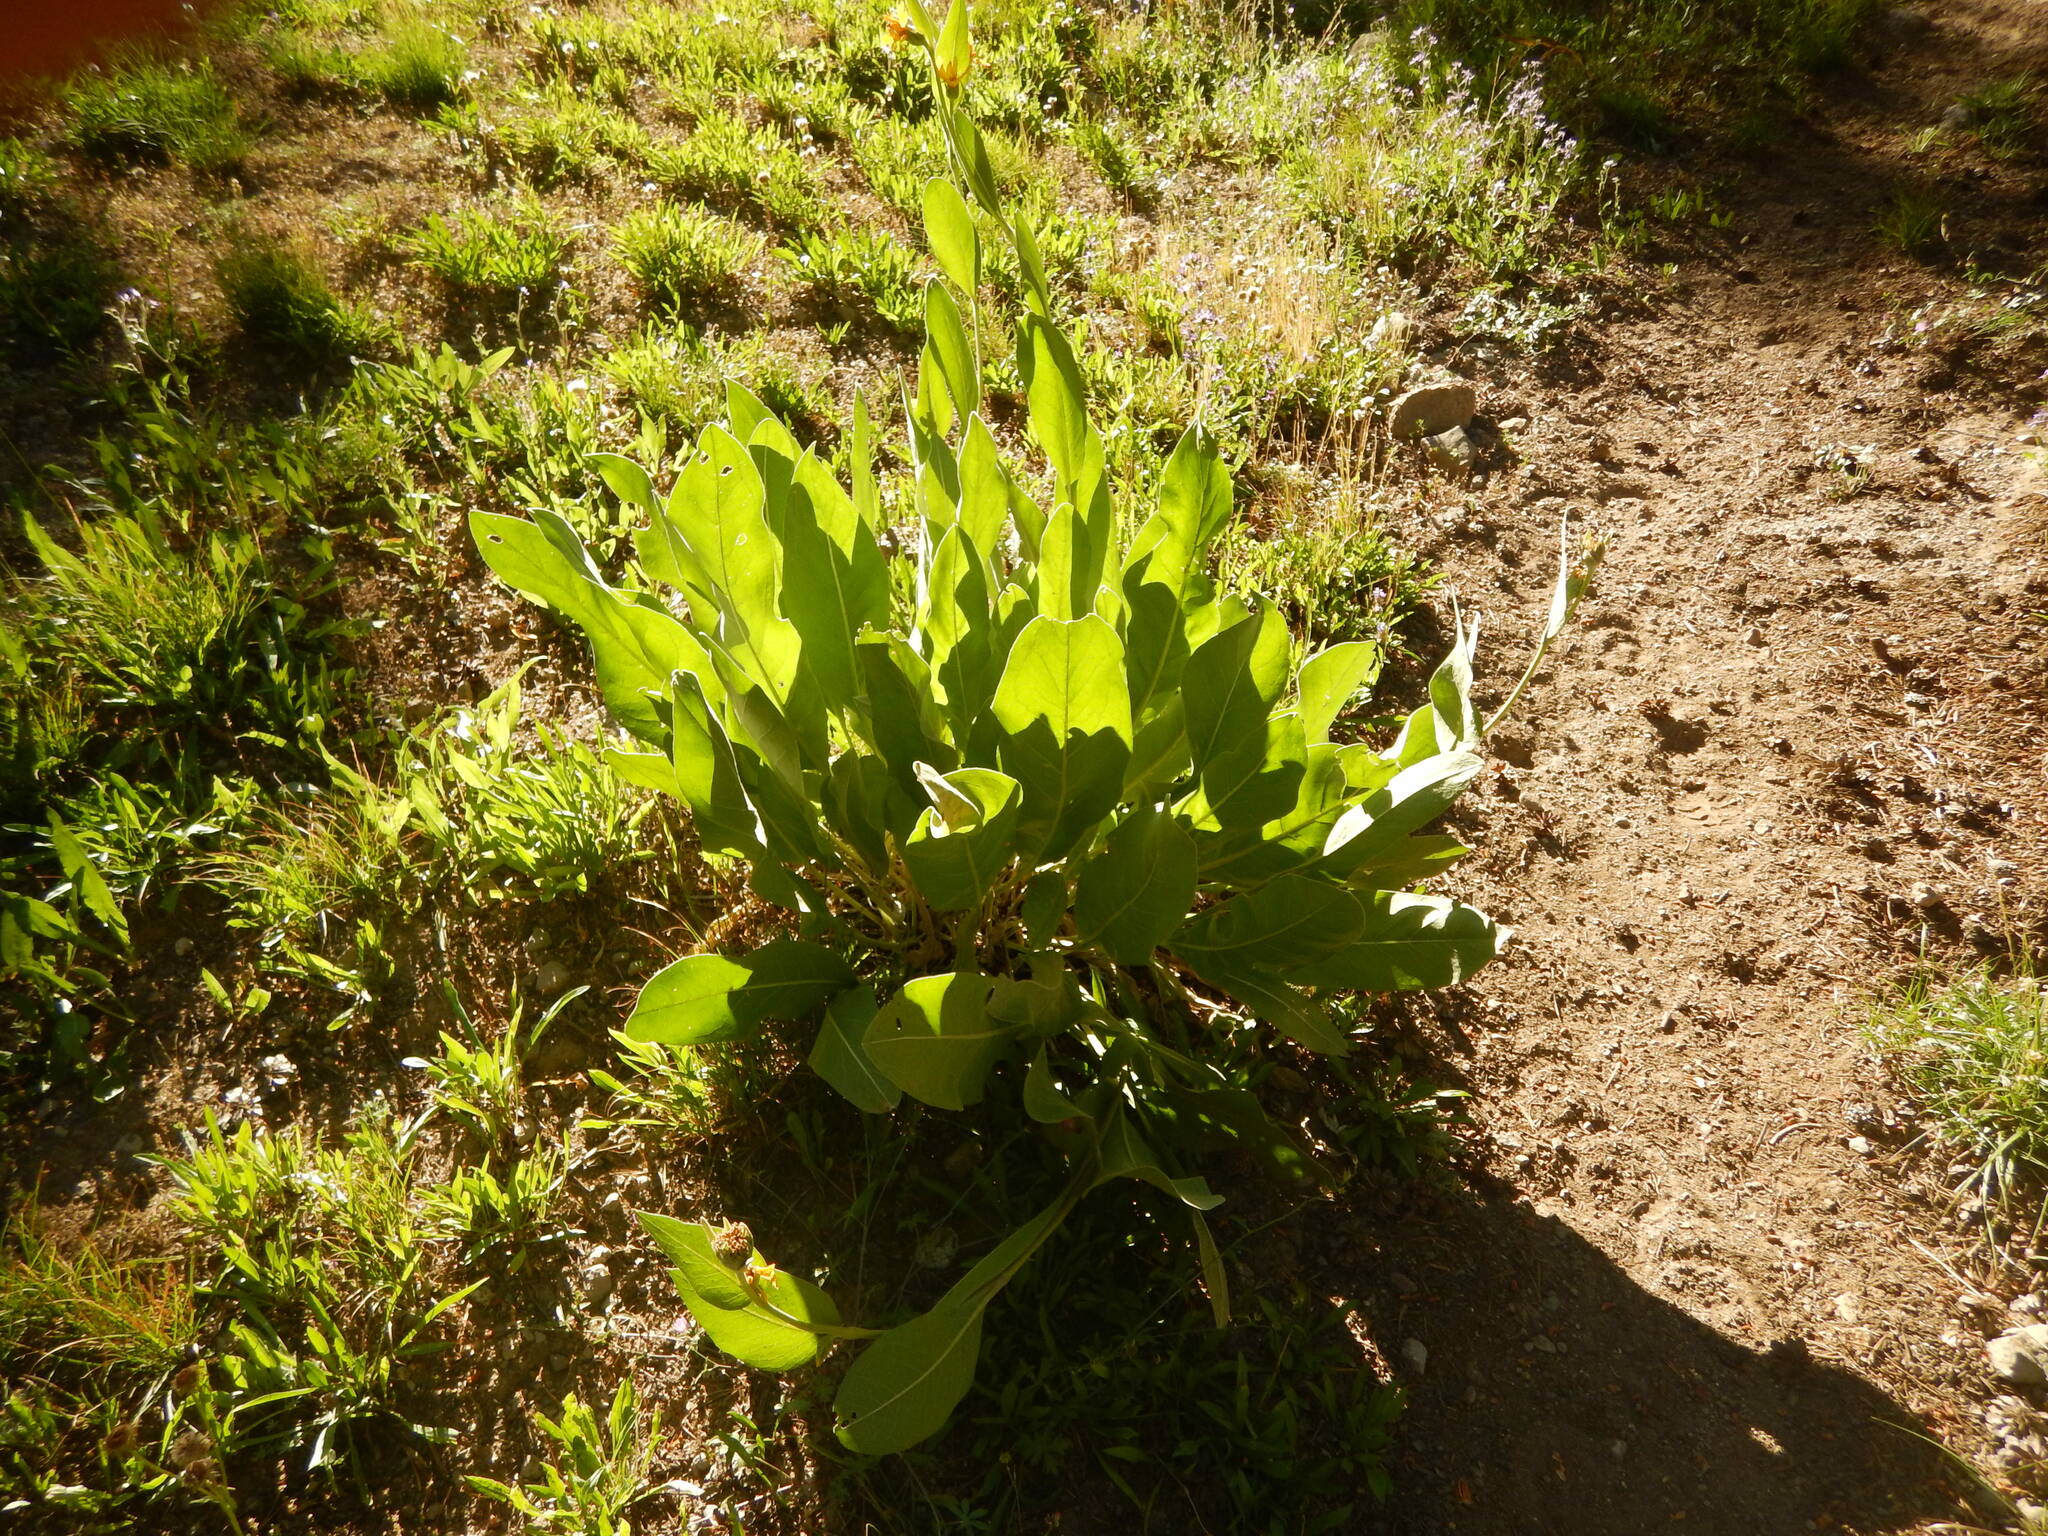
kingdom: Plantae
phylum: Tracheophyta
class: Magnoliopsida
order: Asterales
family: Asteraceae
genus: Wyethia
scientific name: Wyethia mollis
